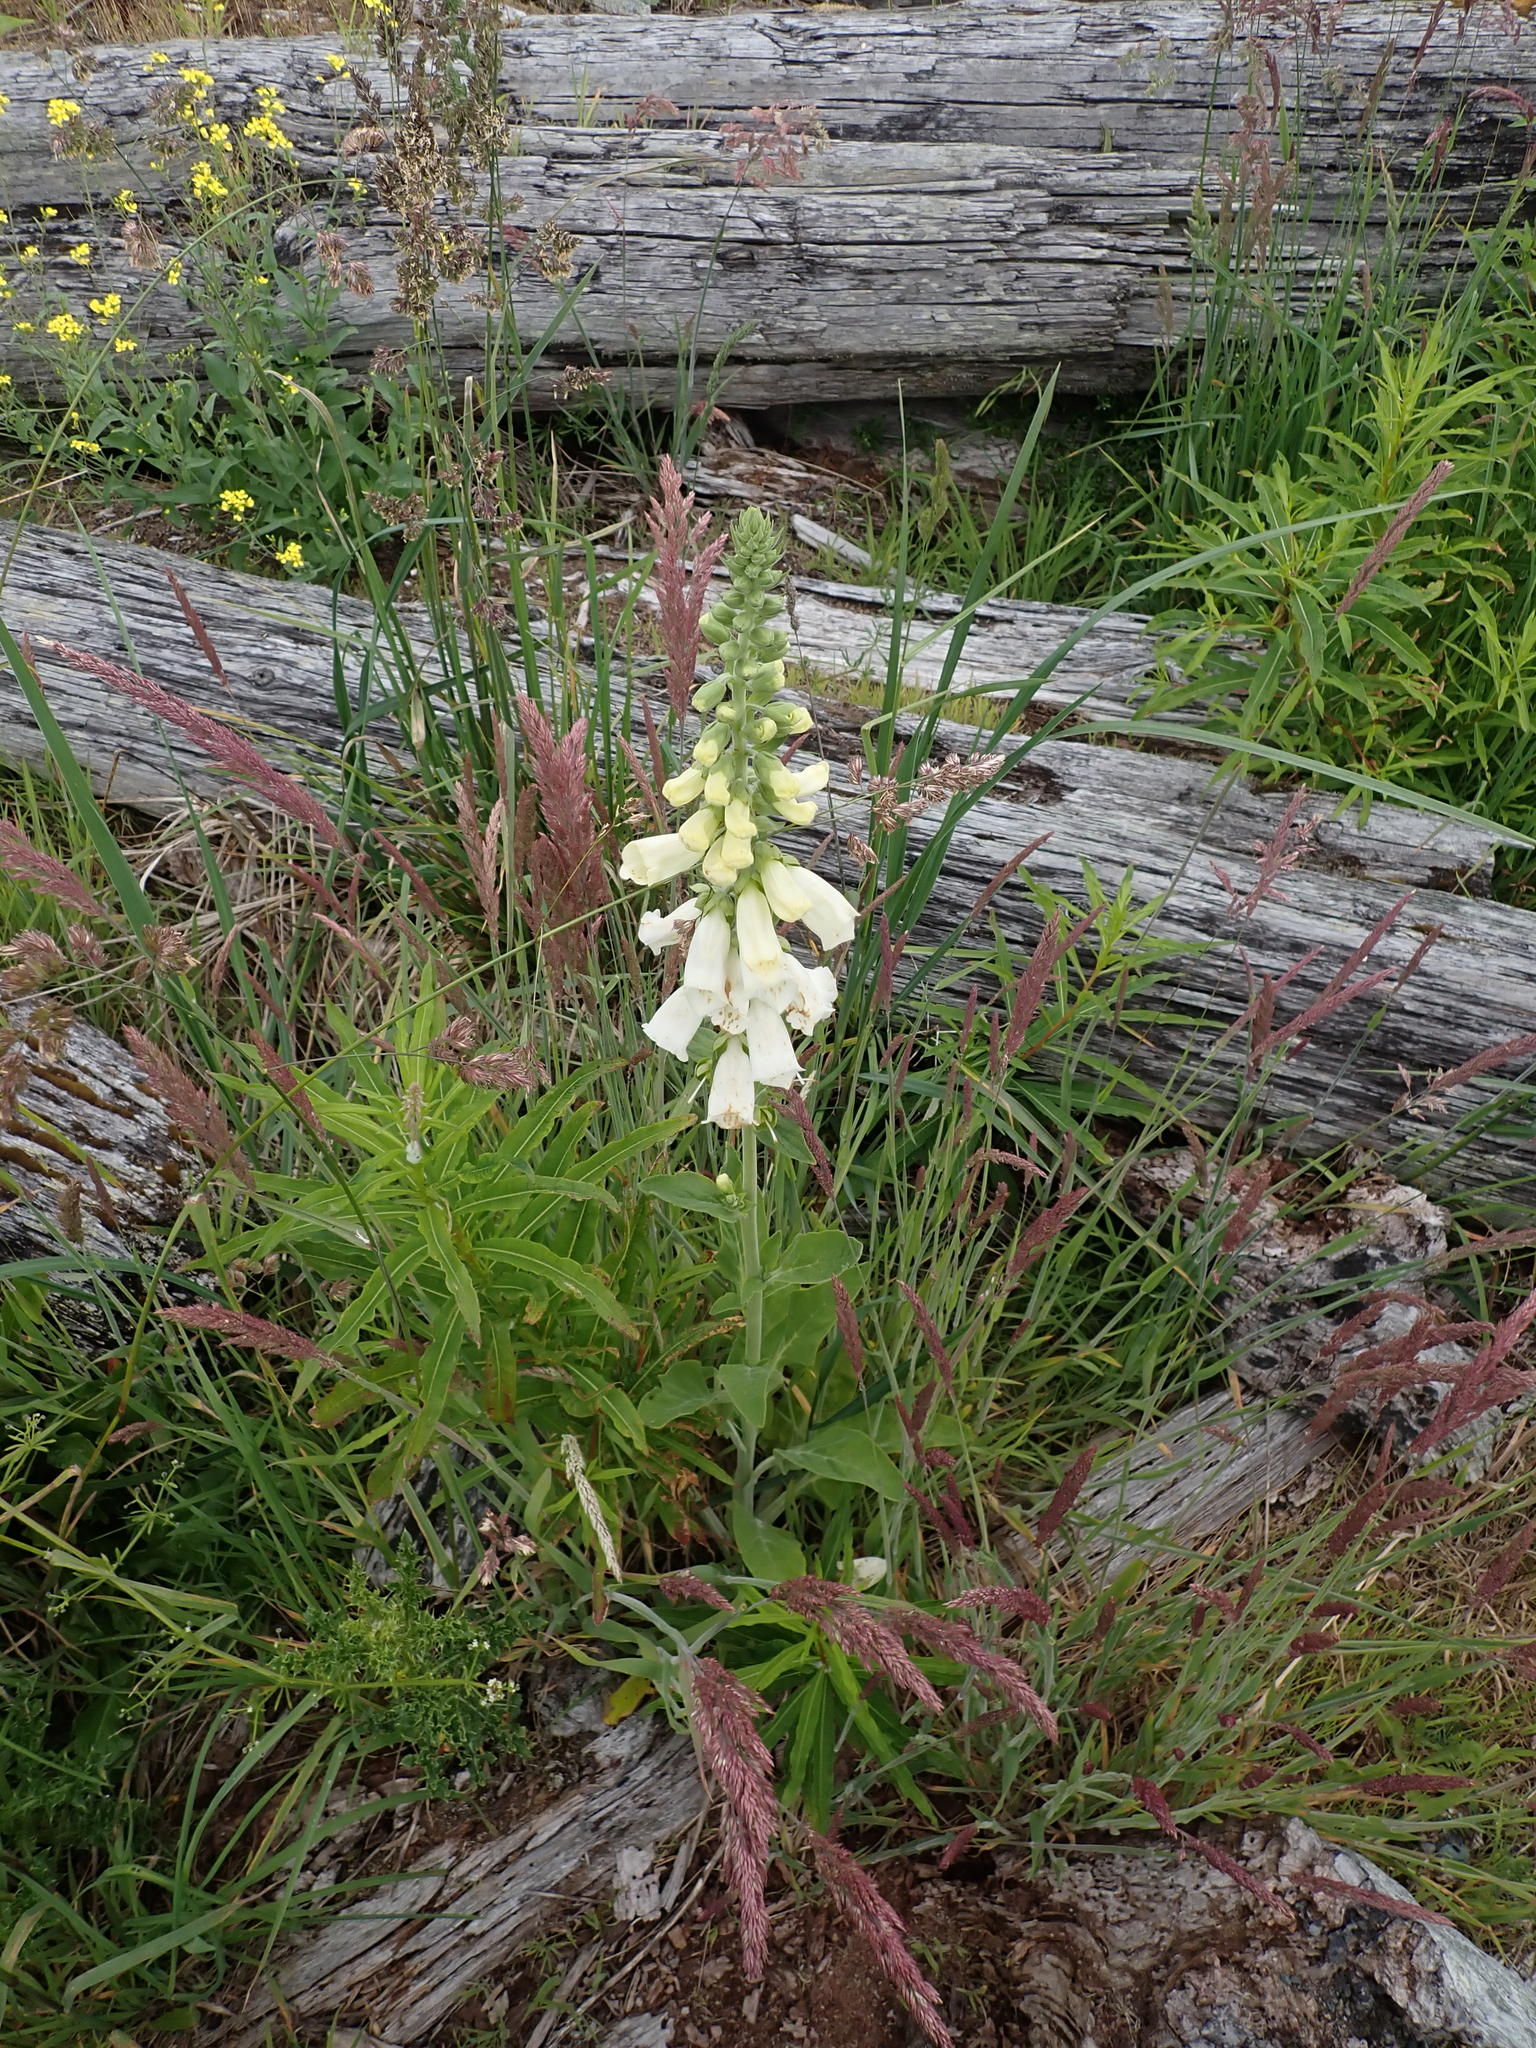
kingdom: Plantae
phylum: Tracheophyta
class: Magnoliopsida
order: Lamiales
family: Plantaginaceae
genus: Digitalis
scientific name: Digitalis purpurea
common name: Foxglove
